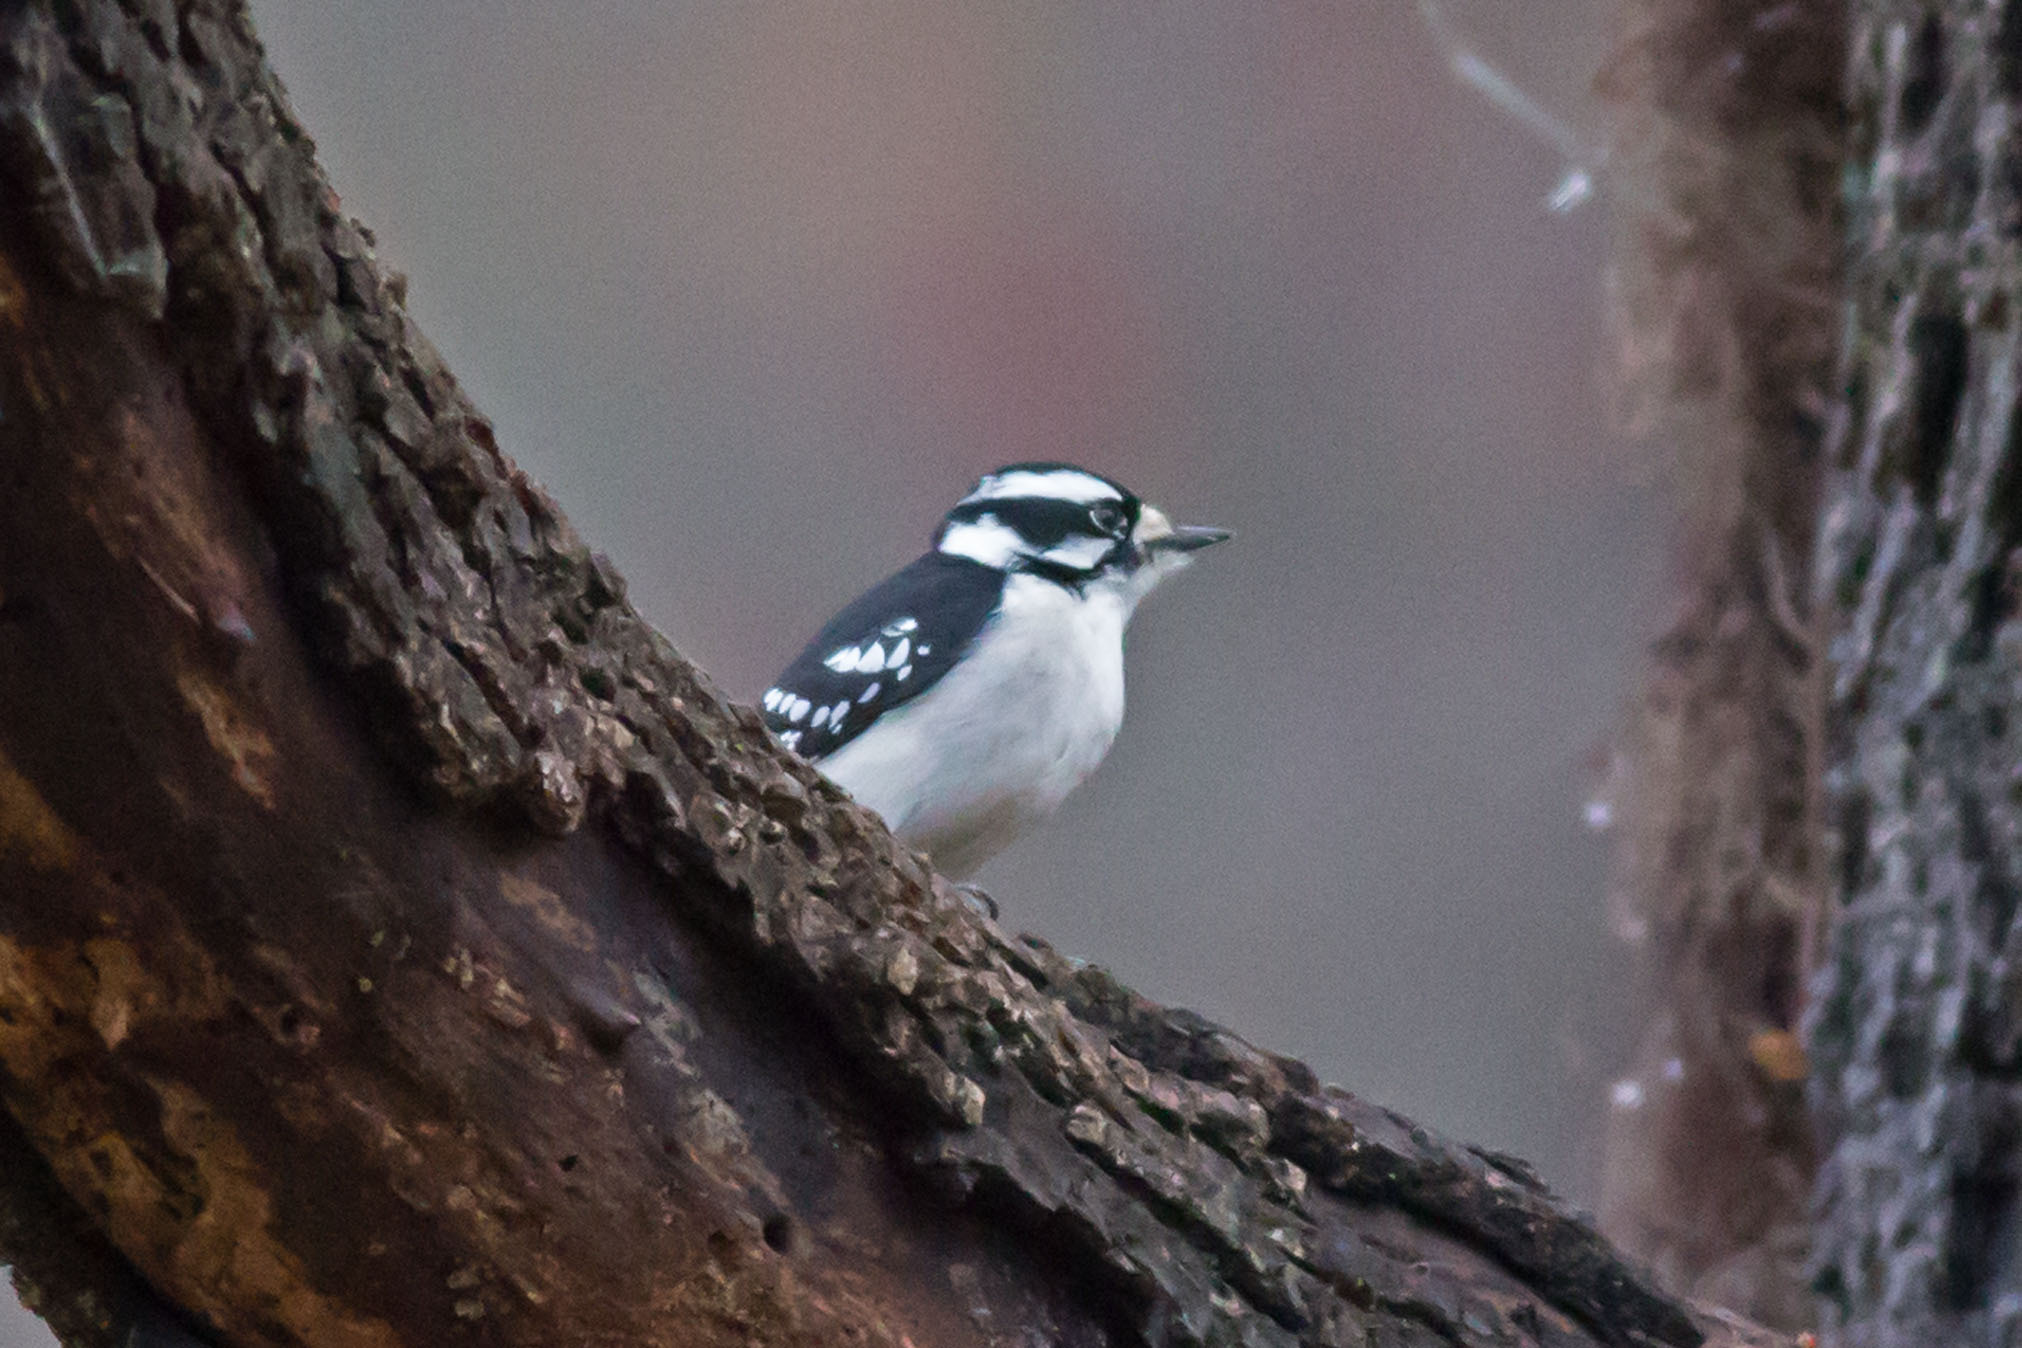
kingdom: Animalia
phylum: Chordata
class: Aves
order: Piciformes
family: Picidae
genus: Dryobates
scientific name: Dryobates pubescens
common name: Downy woodpecker
